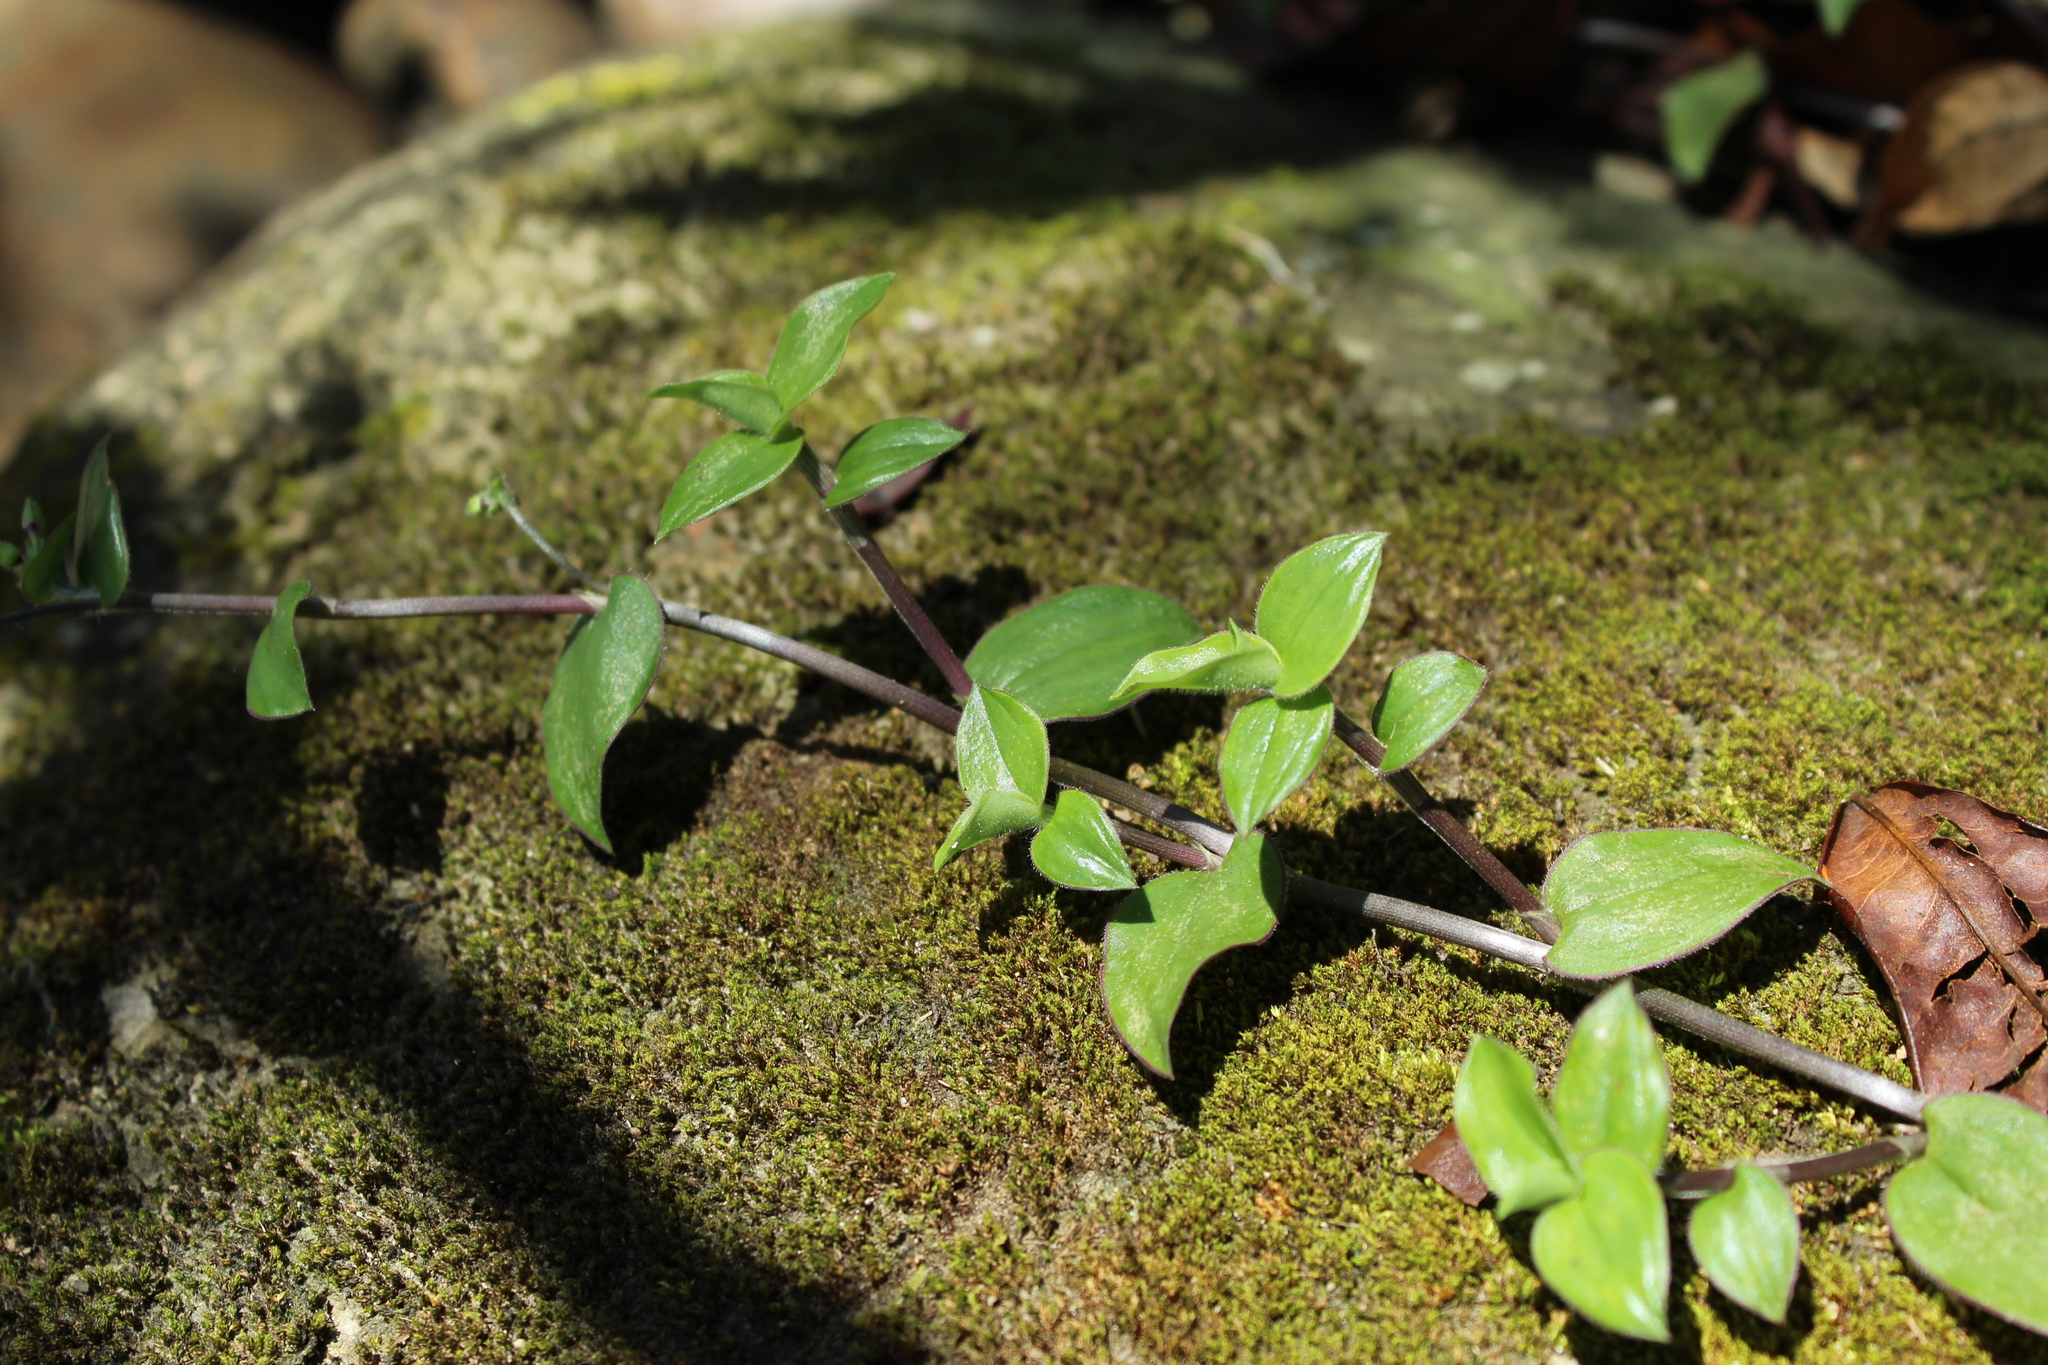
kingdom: Plantae
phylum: Tracheophyta
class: Liliopsida
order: Commelinales
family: Commelinaceae
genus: Callisia
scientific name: Callisia gracilis
